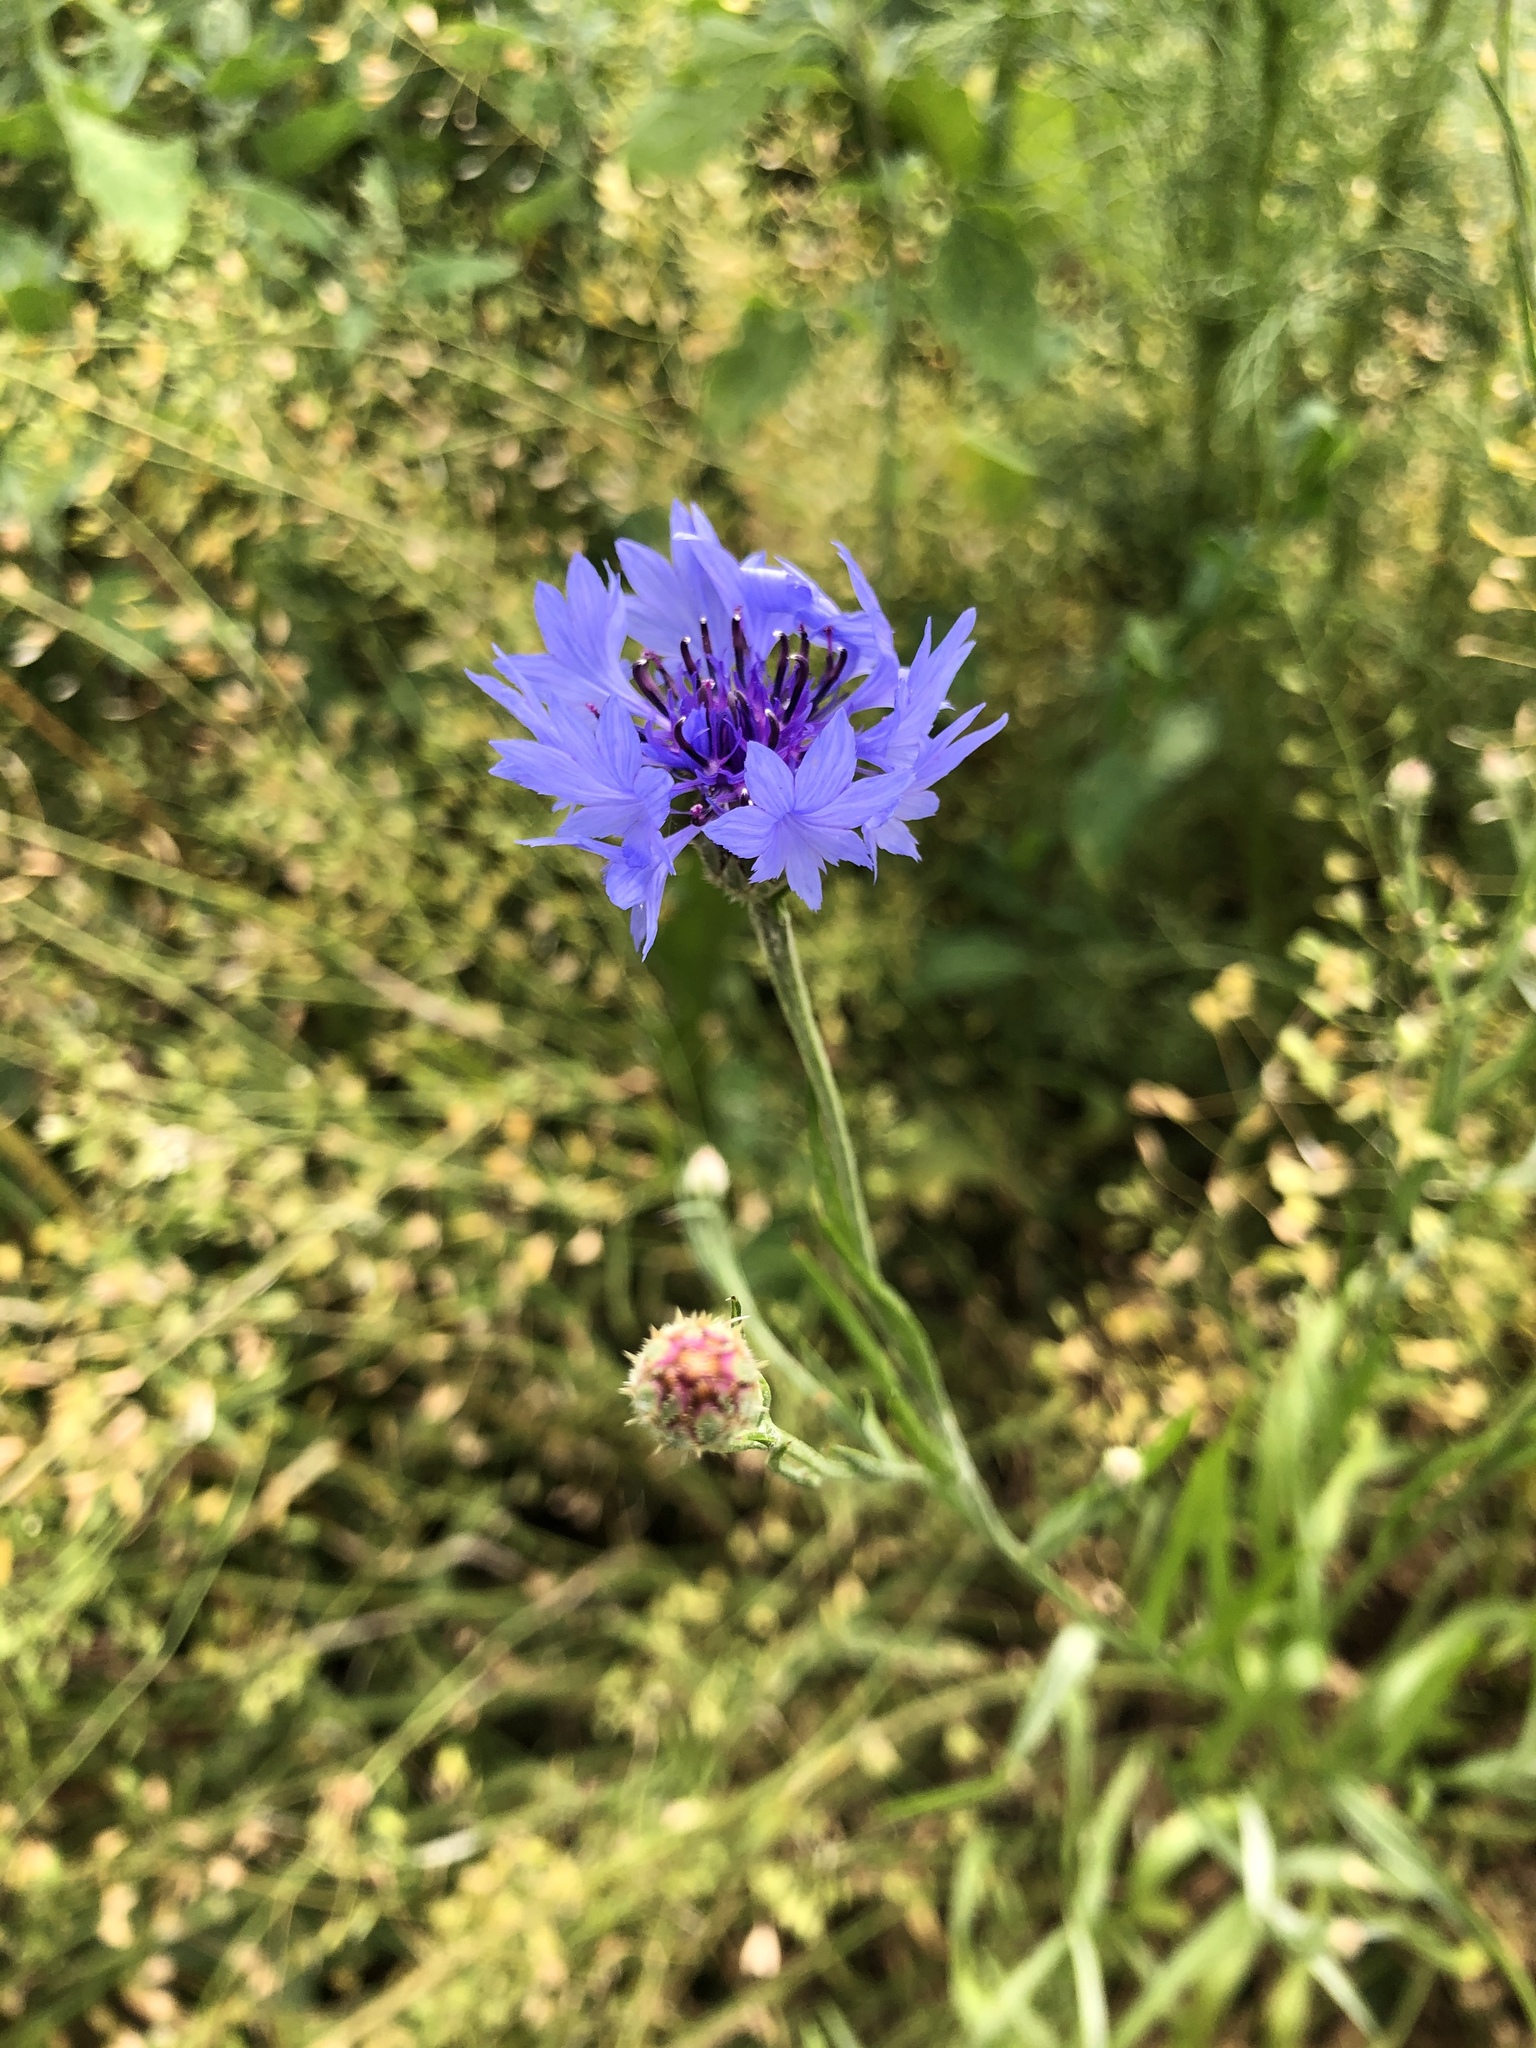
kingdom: Plantae
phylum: Tracheophyta
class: Magnoliopsida
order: Asterales
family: Asteraceae
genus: Centaurea
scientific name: Centaurea cyanus
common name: Cornflower
